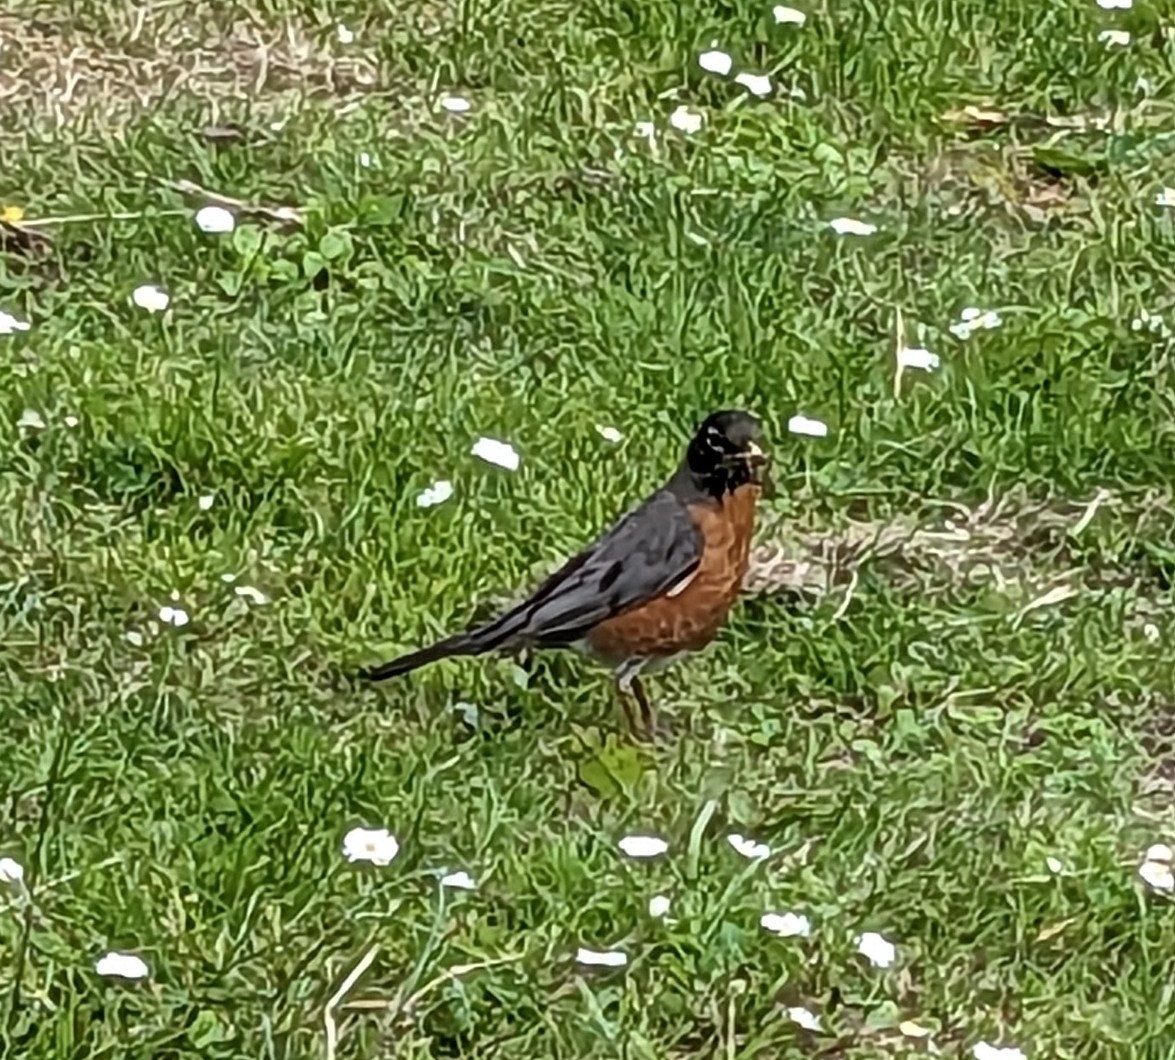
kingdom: Animalia
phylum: Chordata
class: Aves
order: Passeriformes
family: Turdidae
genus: Turdus
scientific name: Turdus migratorius
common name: American robin
